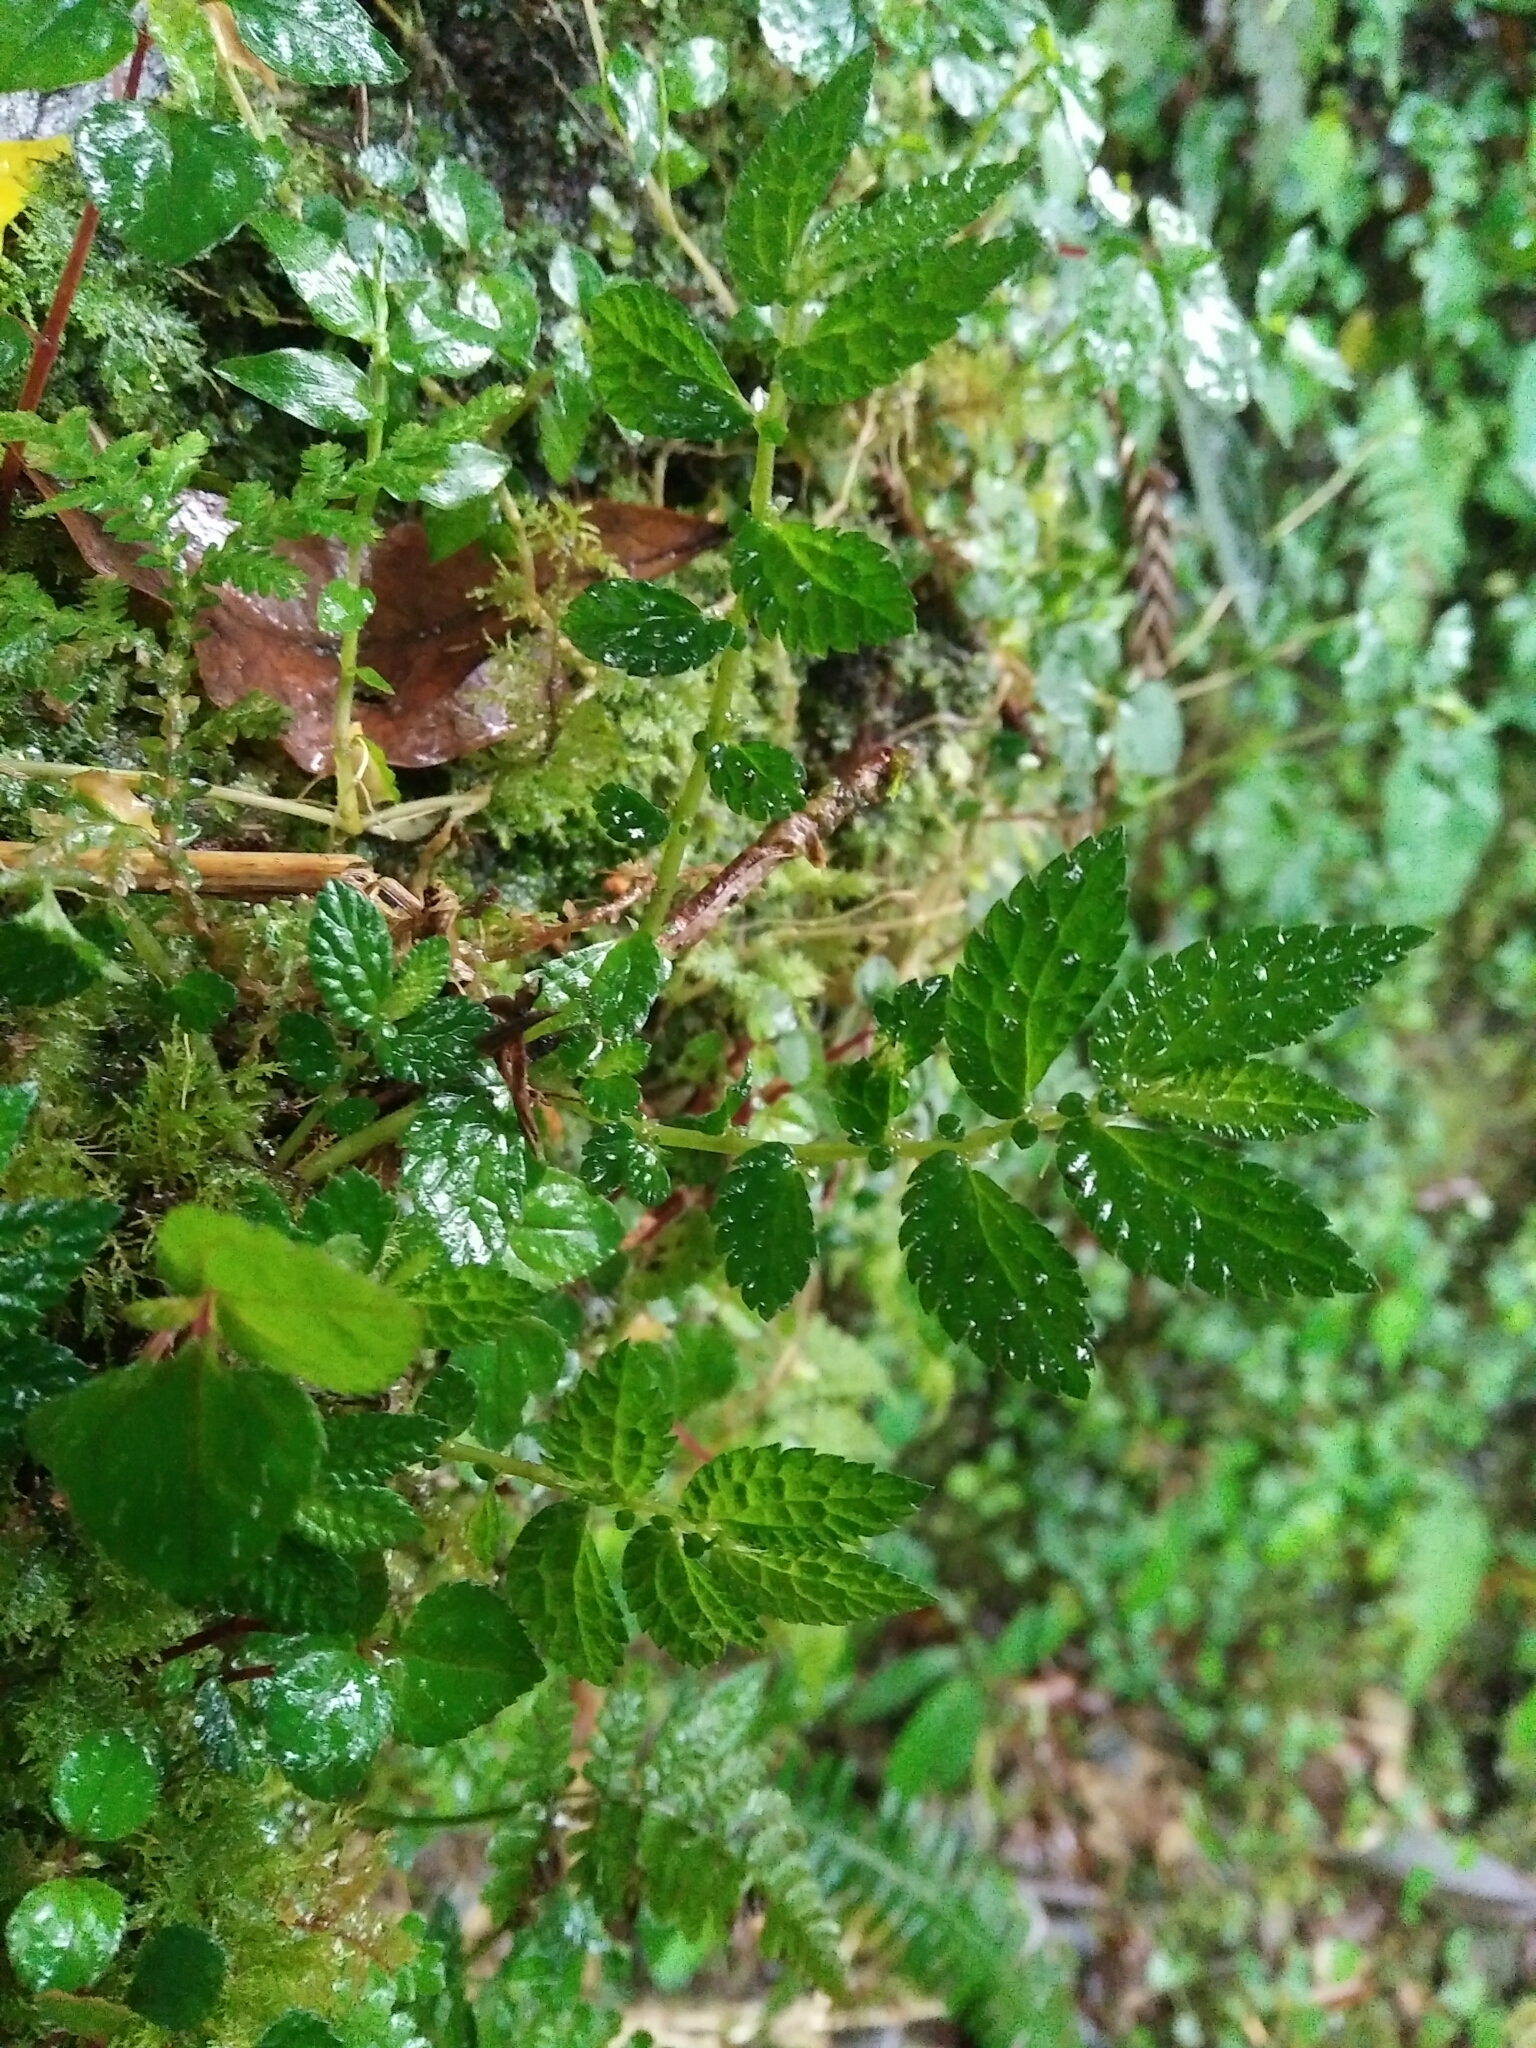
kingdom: Plantae
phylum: Tracheophyta
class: Magnoliopsida
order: Rosales
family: Urticaceae
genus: Elatostema
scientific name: Elatostema parvum
